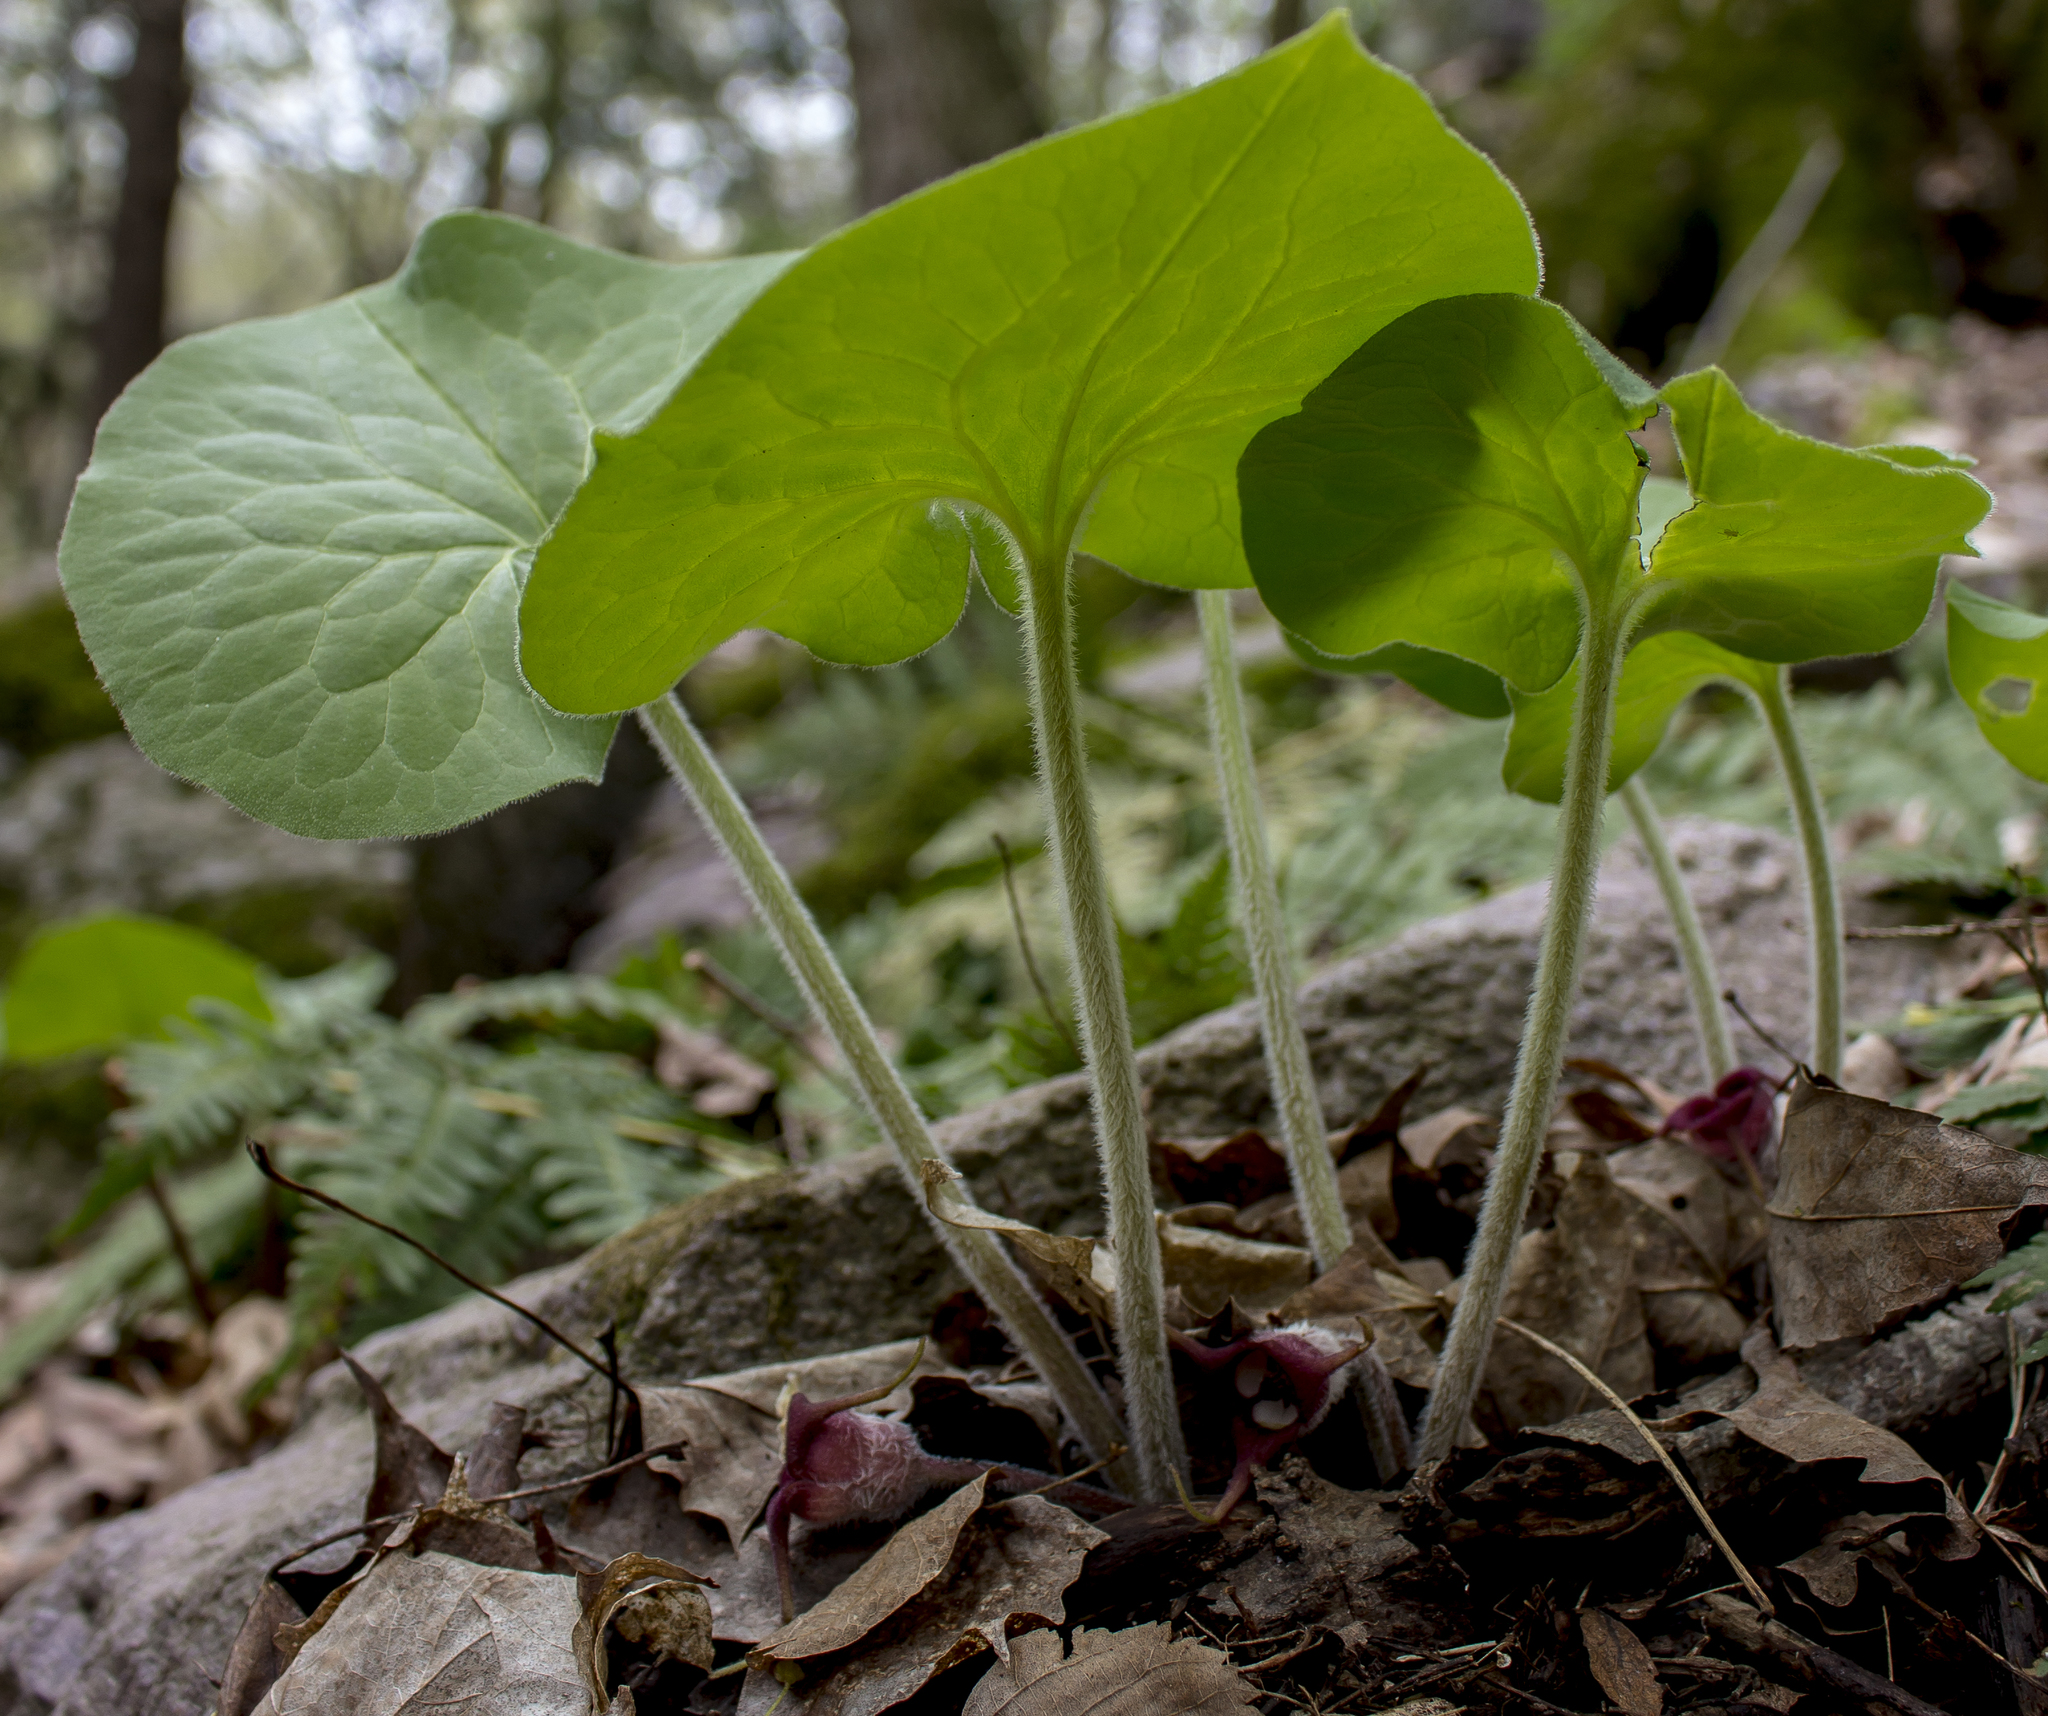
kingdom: Plantae
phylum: Tracheophyta
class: Magnoliopsida
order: Piperales
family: Aristolochiaceae
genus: Asarum
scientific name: Asarum canadense
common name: Wild ginger
